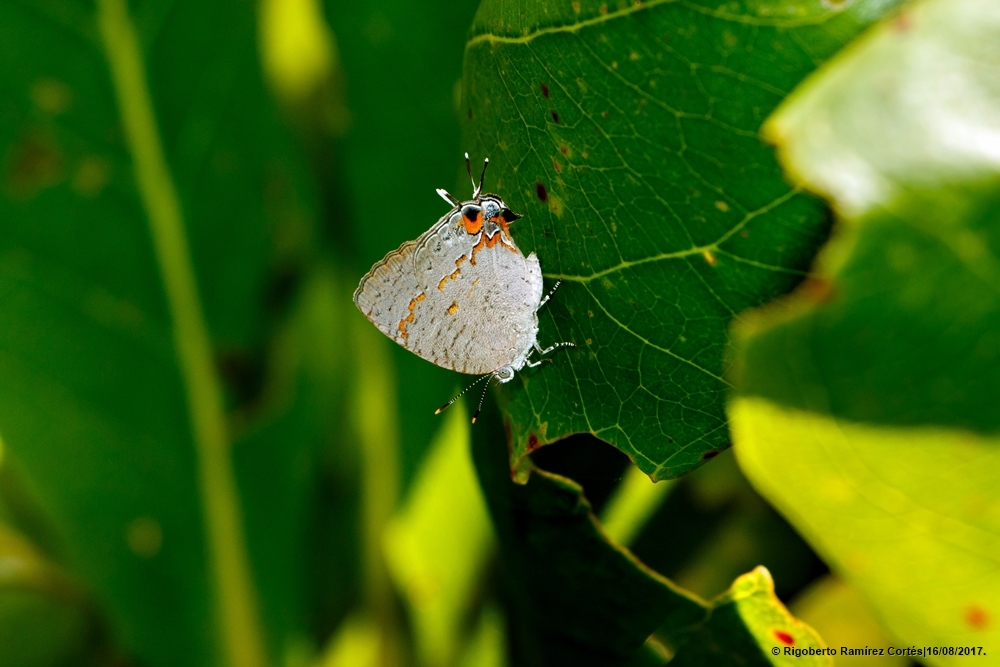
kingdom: Animalia
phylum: Arthropoda
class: Insecta
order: Lepidoptera
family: Lycaenidae
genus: Hypostrymon
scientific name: Hypostrymon critola
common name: Sonoran hairstreak
